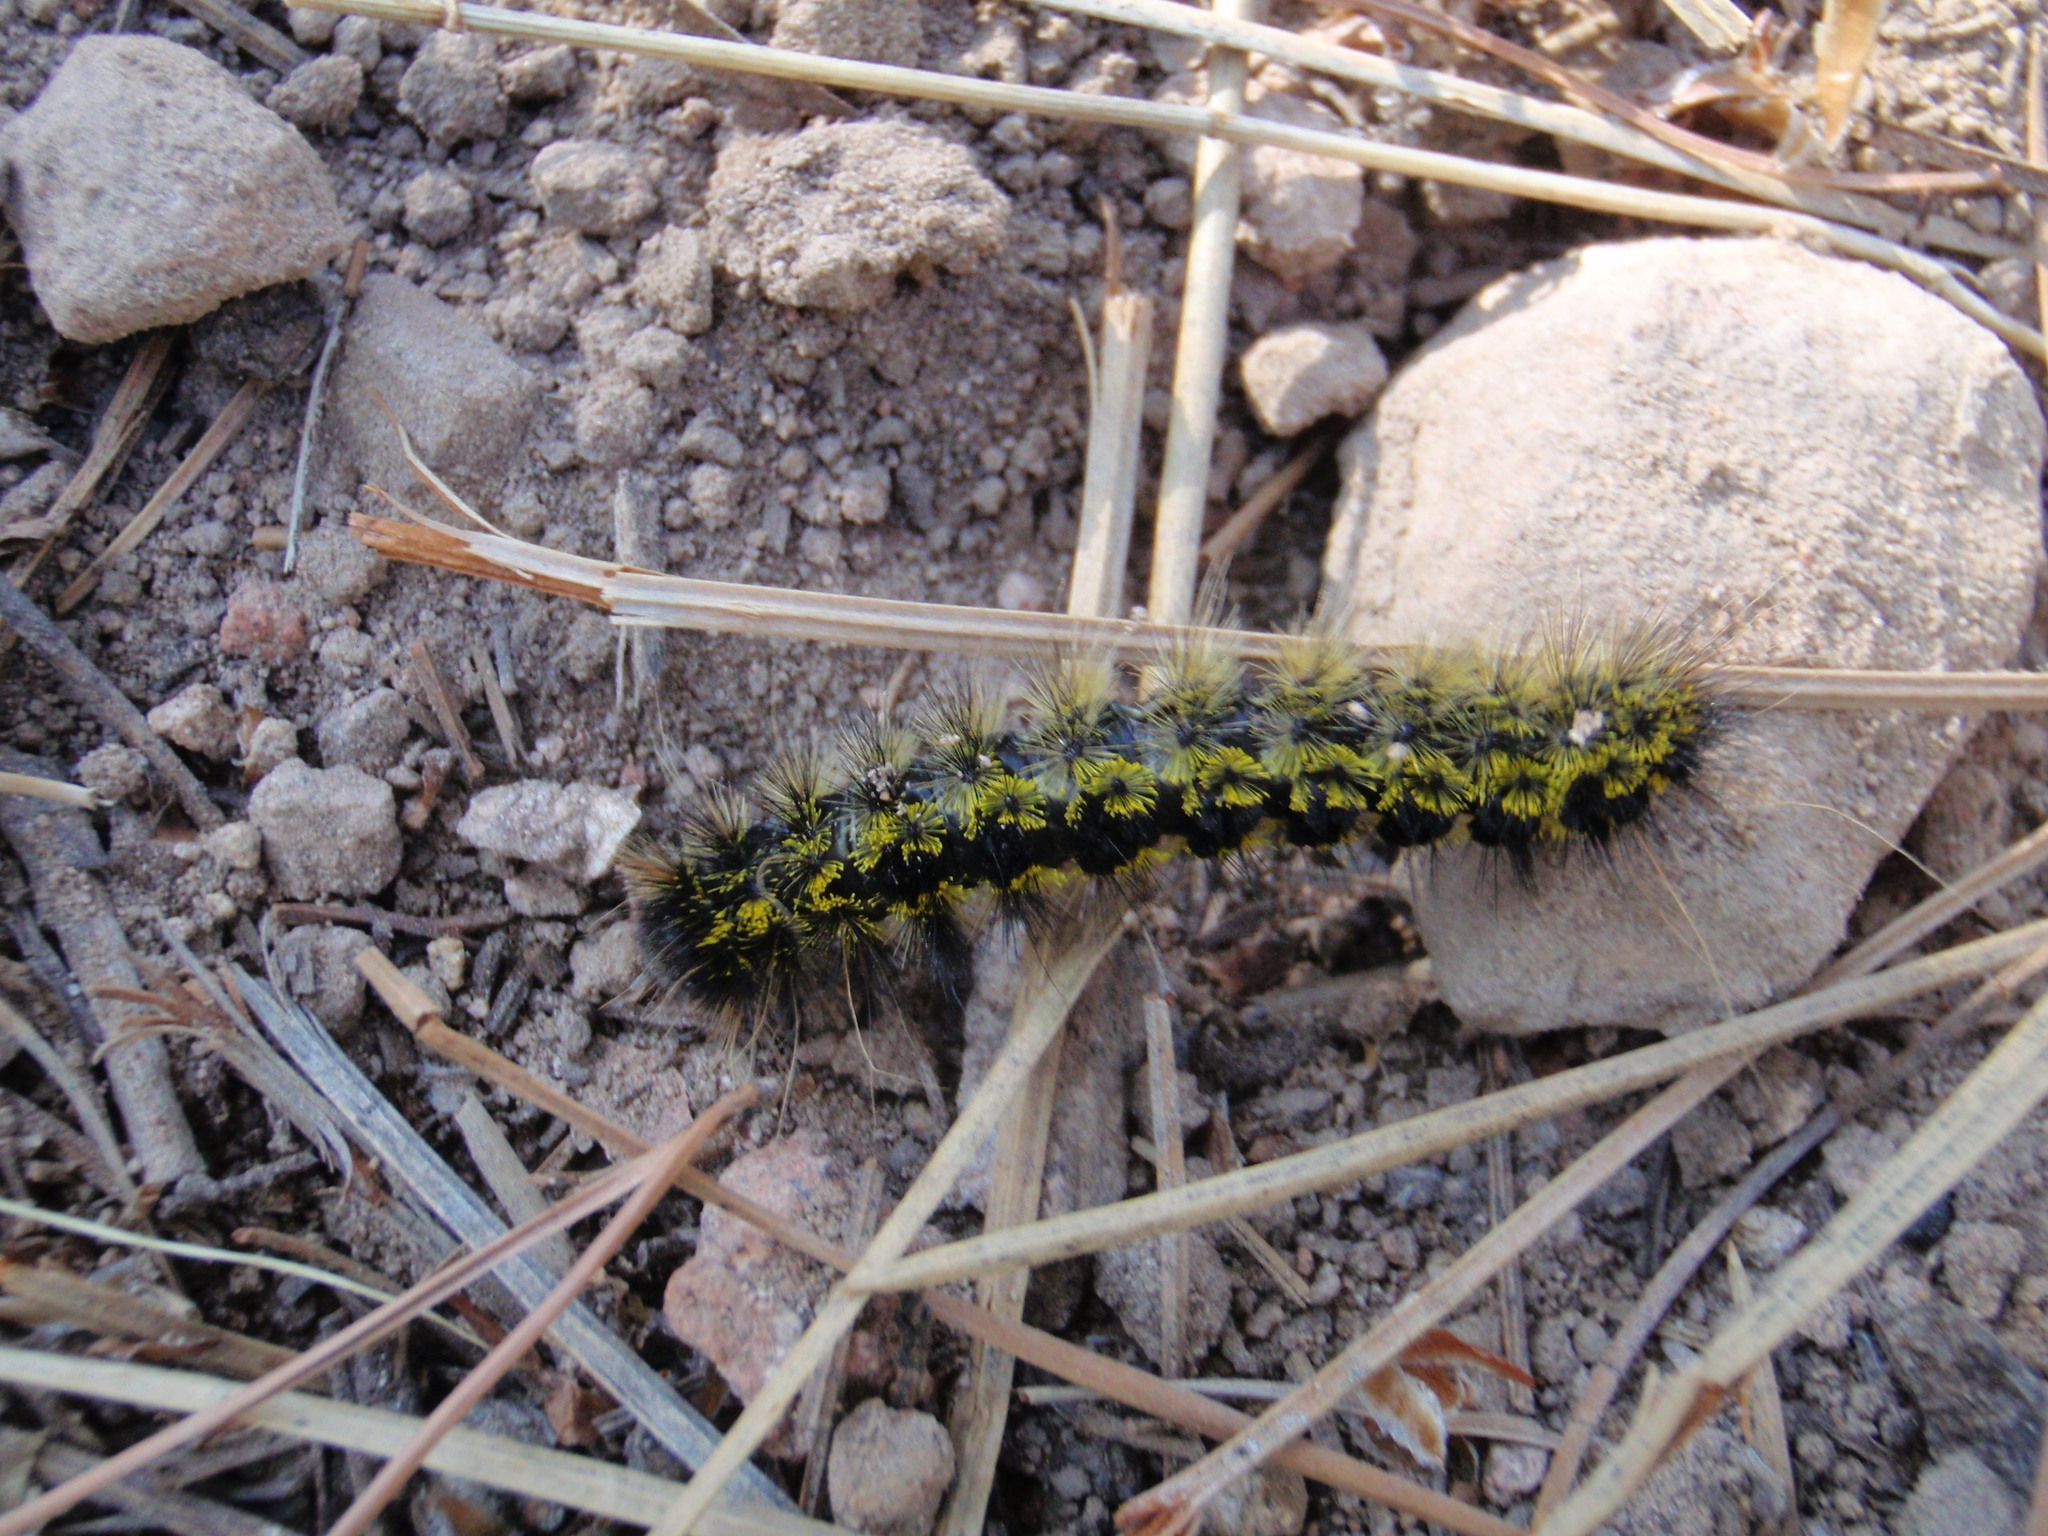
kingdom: Animalia
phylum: Arthropoda
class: Insecta
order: Lepidoptera
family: Erebidae
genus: Lophocampa
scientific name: Lophocampa argentata
